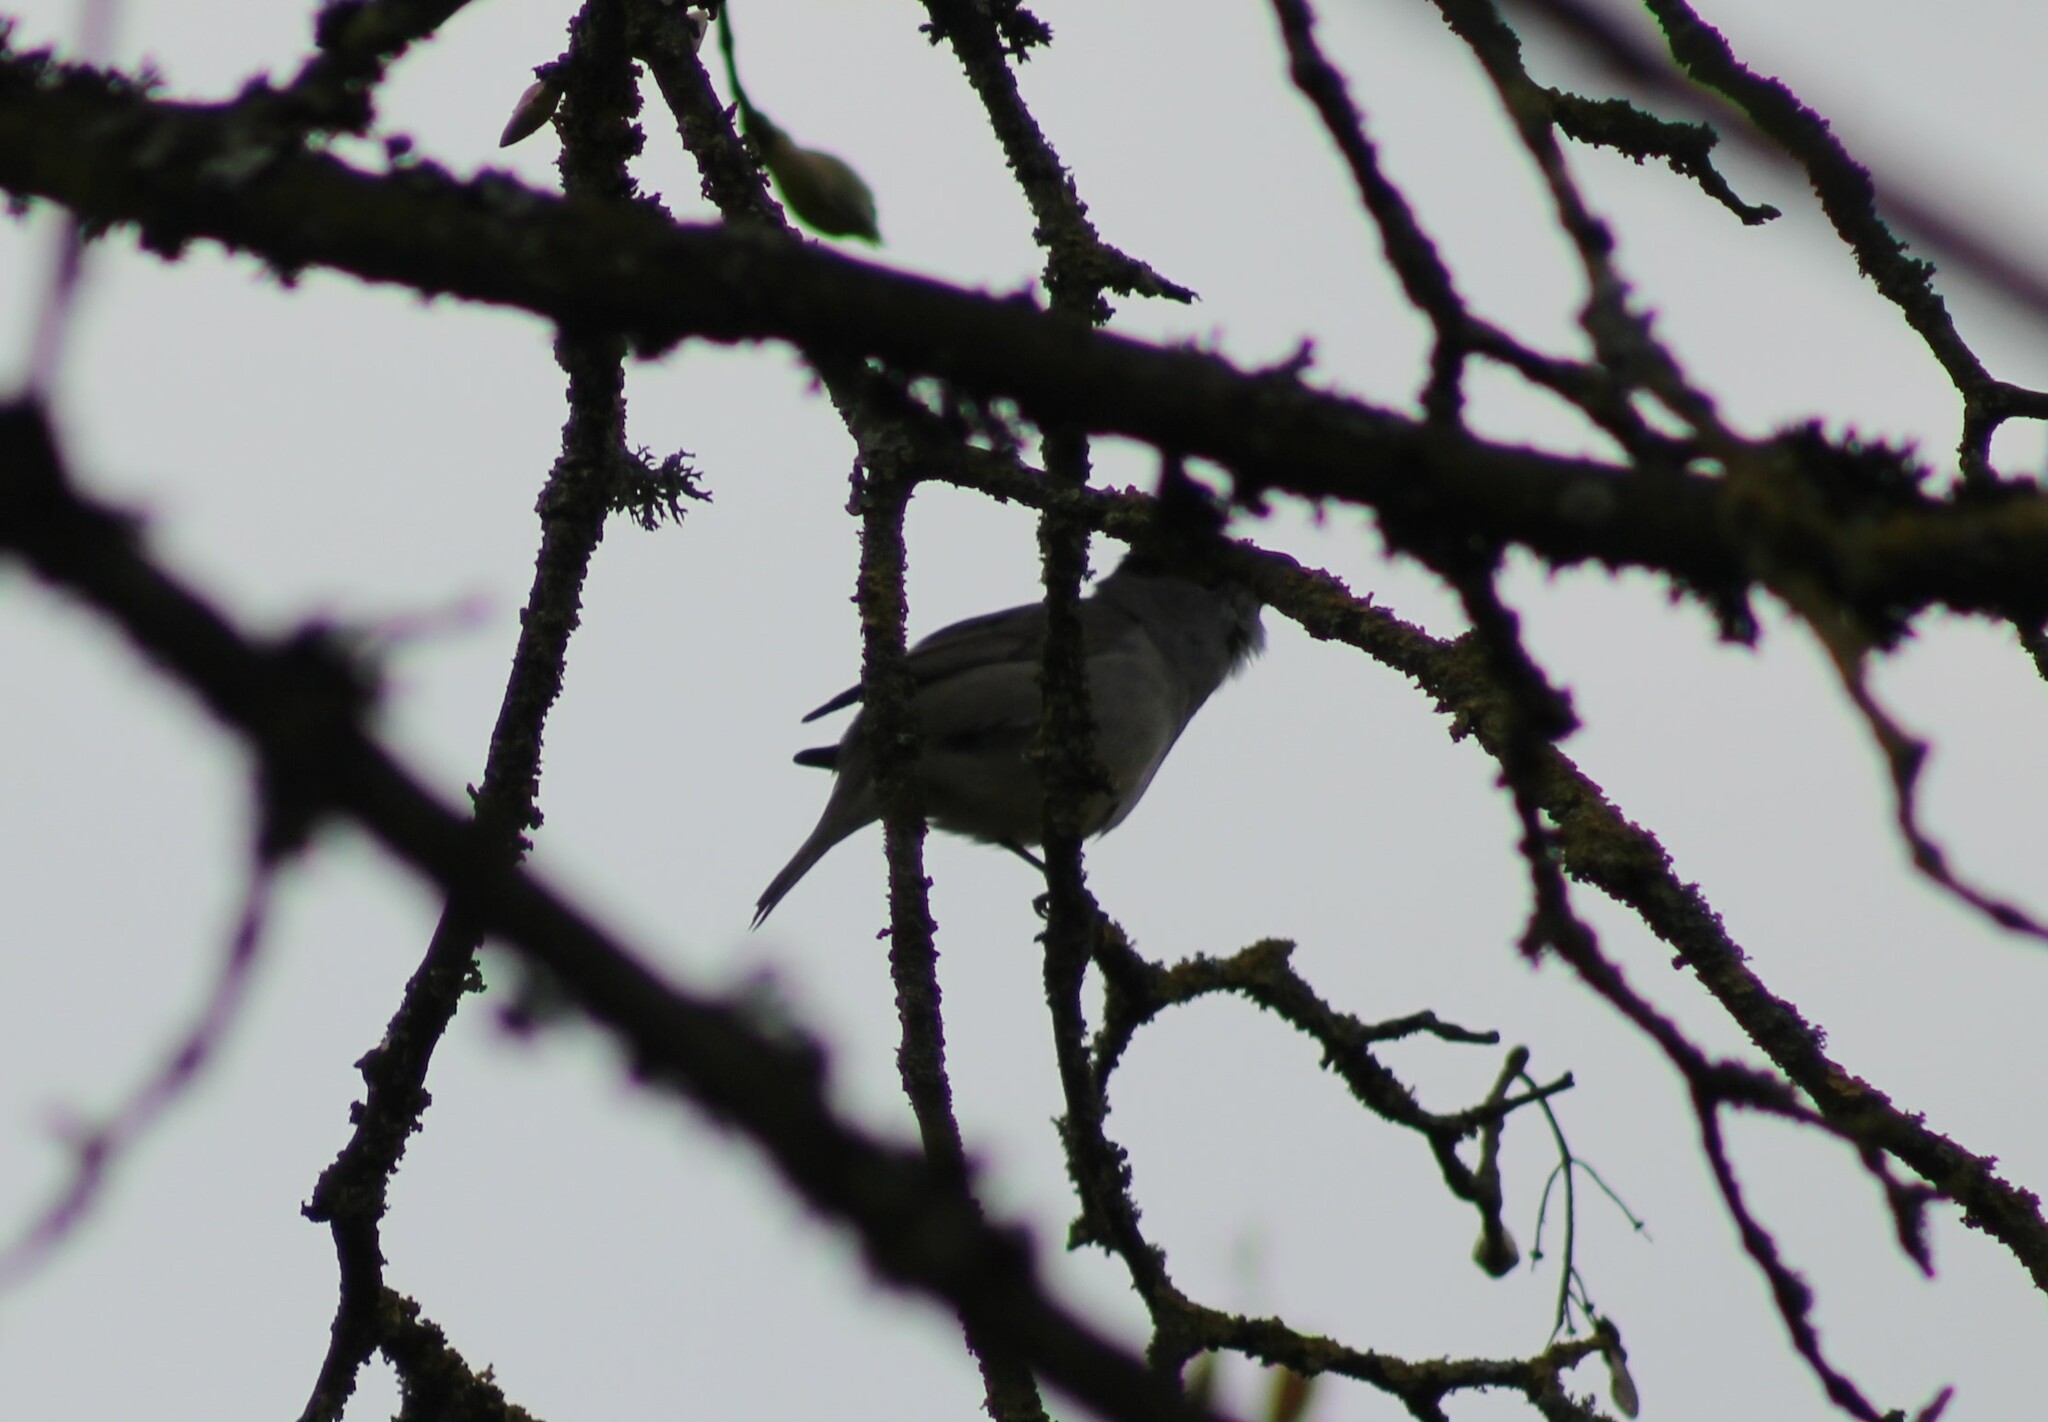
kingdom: Animalia
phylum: Chordata
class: Aves
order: Passeriformes
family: Sylviidae
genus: Sylvia
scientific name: Sylvia atricapilla
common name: Eurasian blackcap
